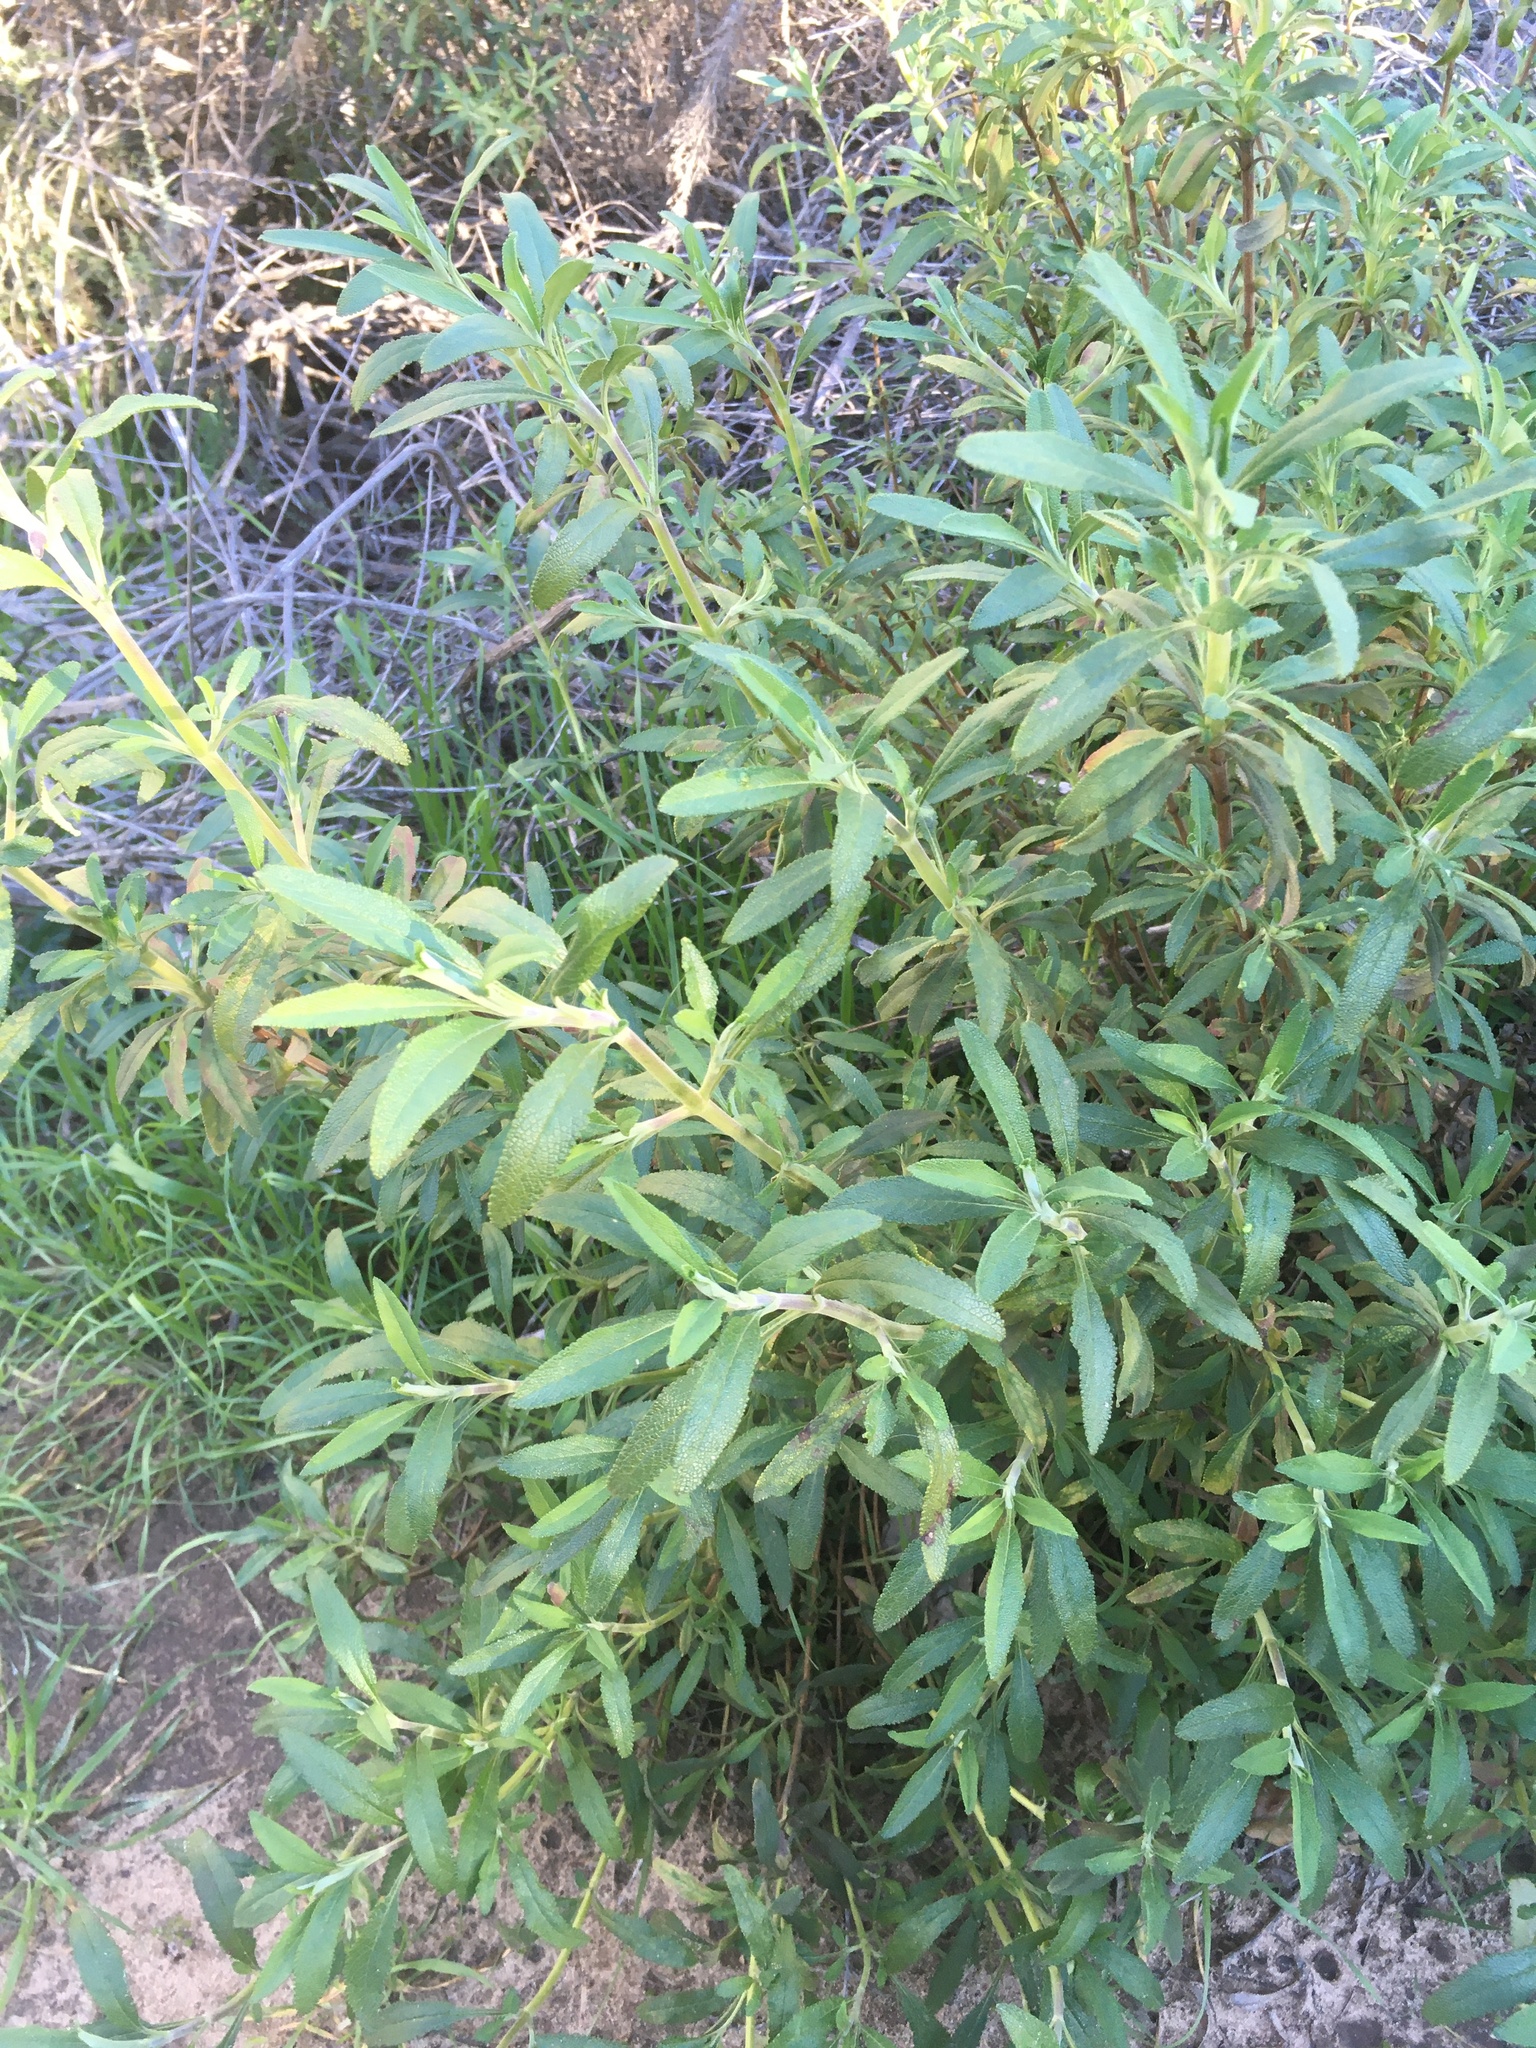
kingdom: Plantae
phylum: Tracheophyta
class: Magnoliopsida
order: Lamiales
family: Lamiaceae
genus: Salvia
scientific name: Salvia mellifera
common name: Black sage
